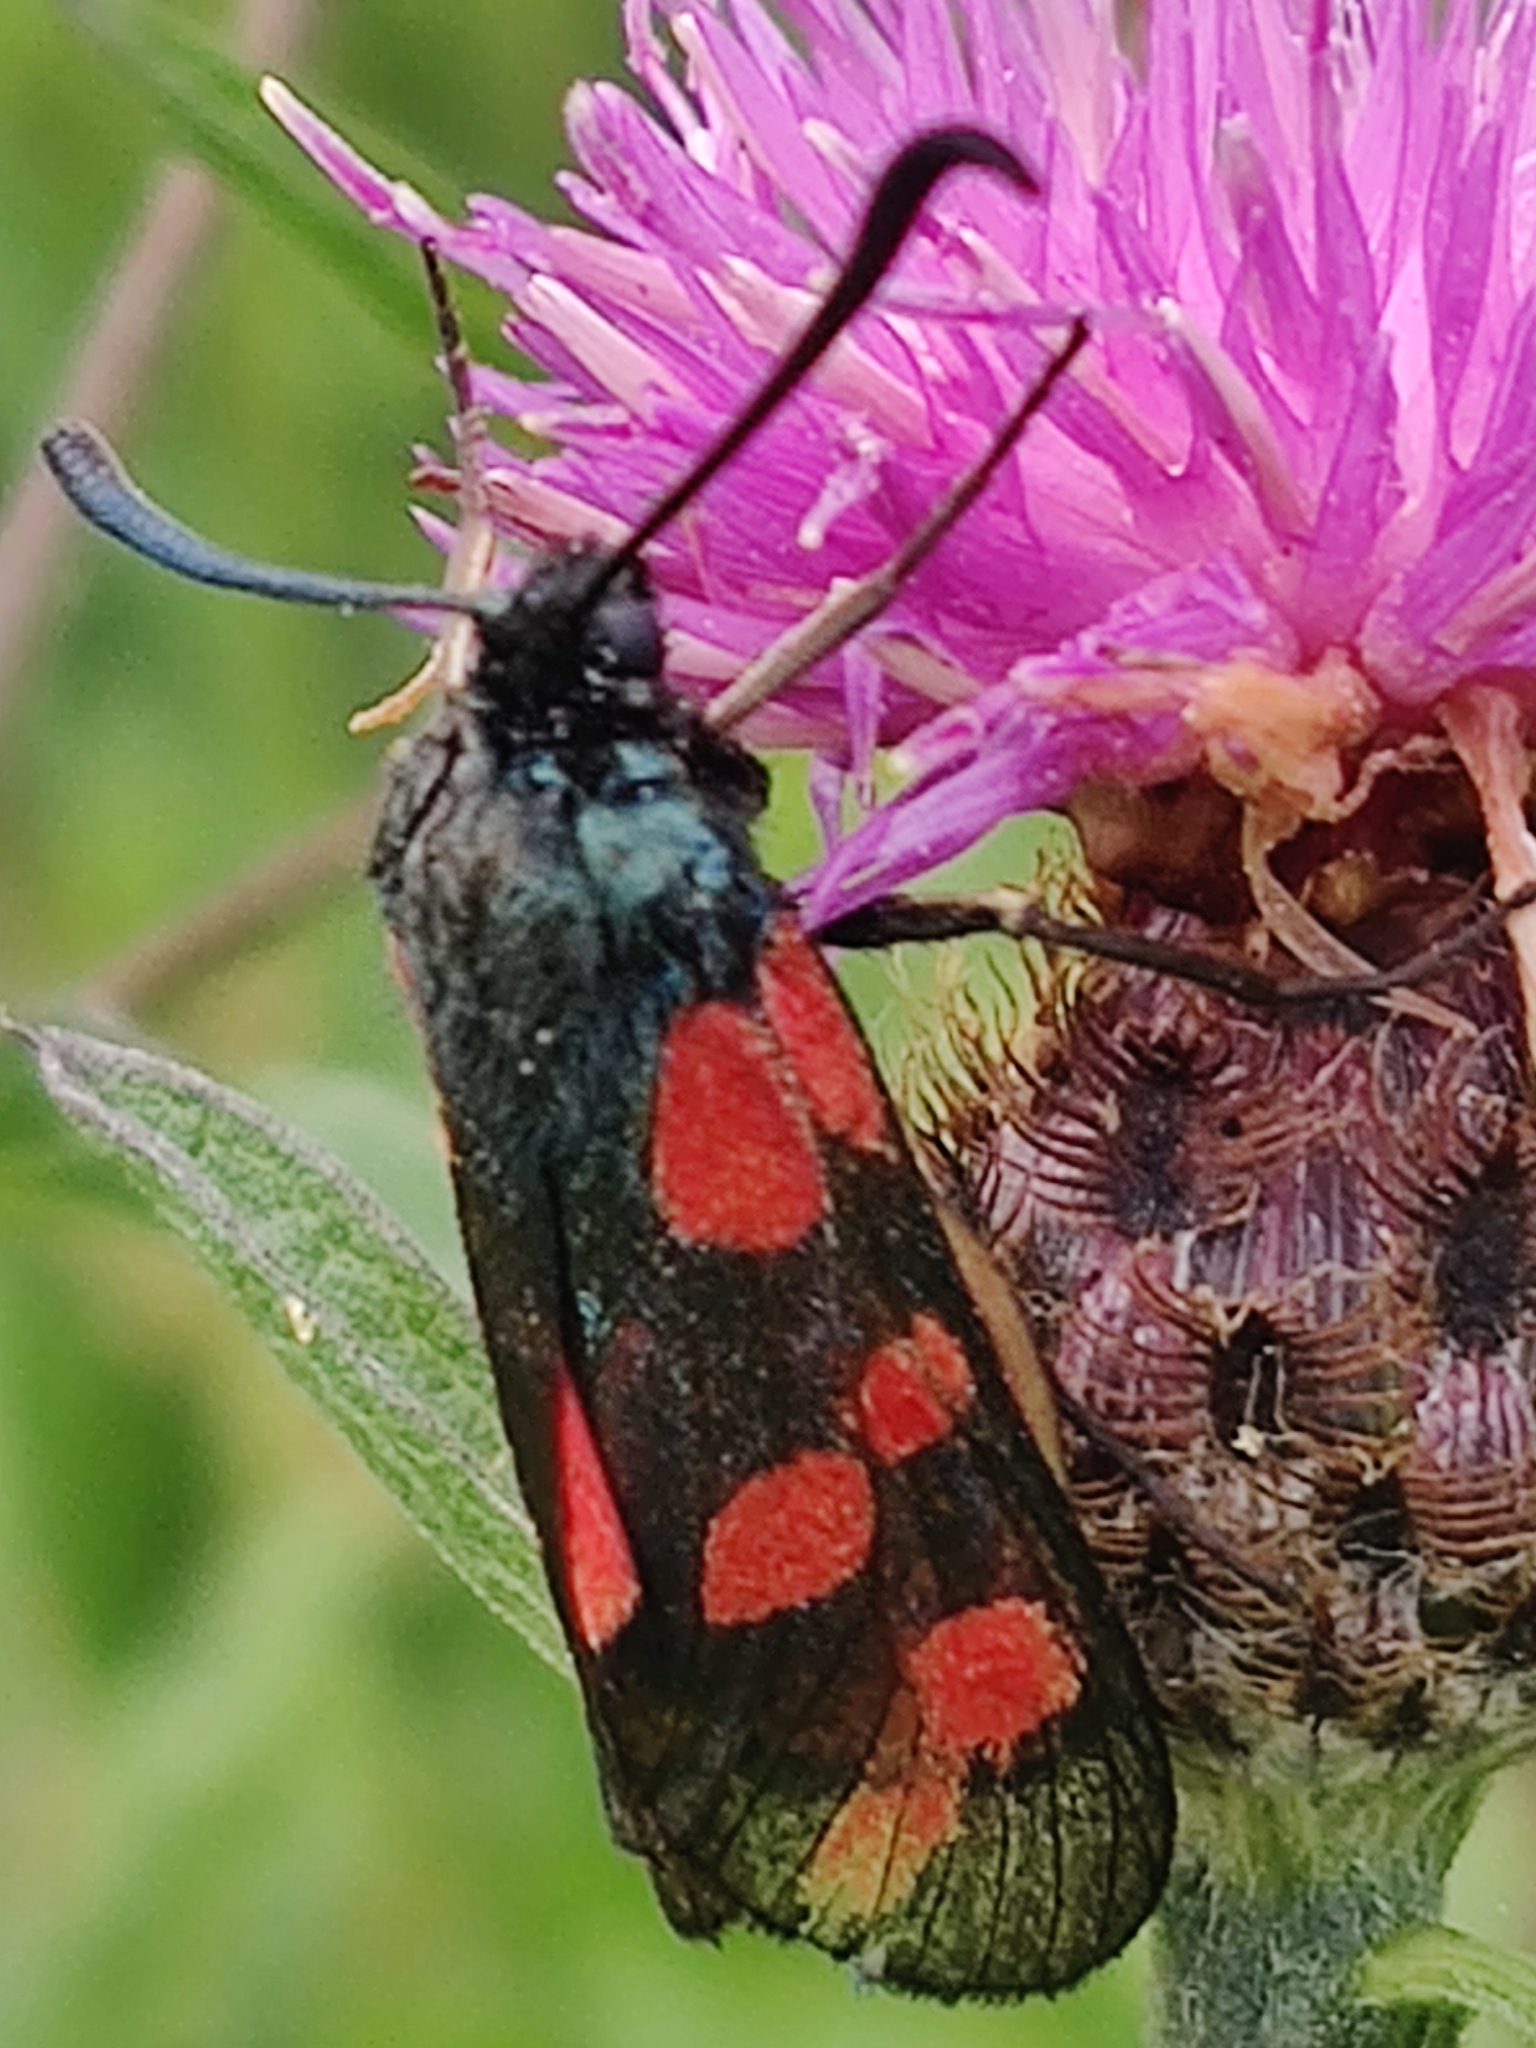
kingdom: Animalia
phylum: Arthropoda
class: Insecta
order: Lepidoptera
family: Zygaenidae
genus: Zygaena
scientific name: Zygaena filipendulae
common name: Six-spot burnet
